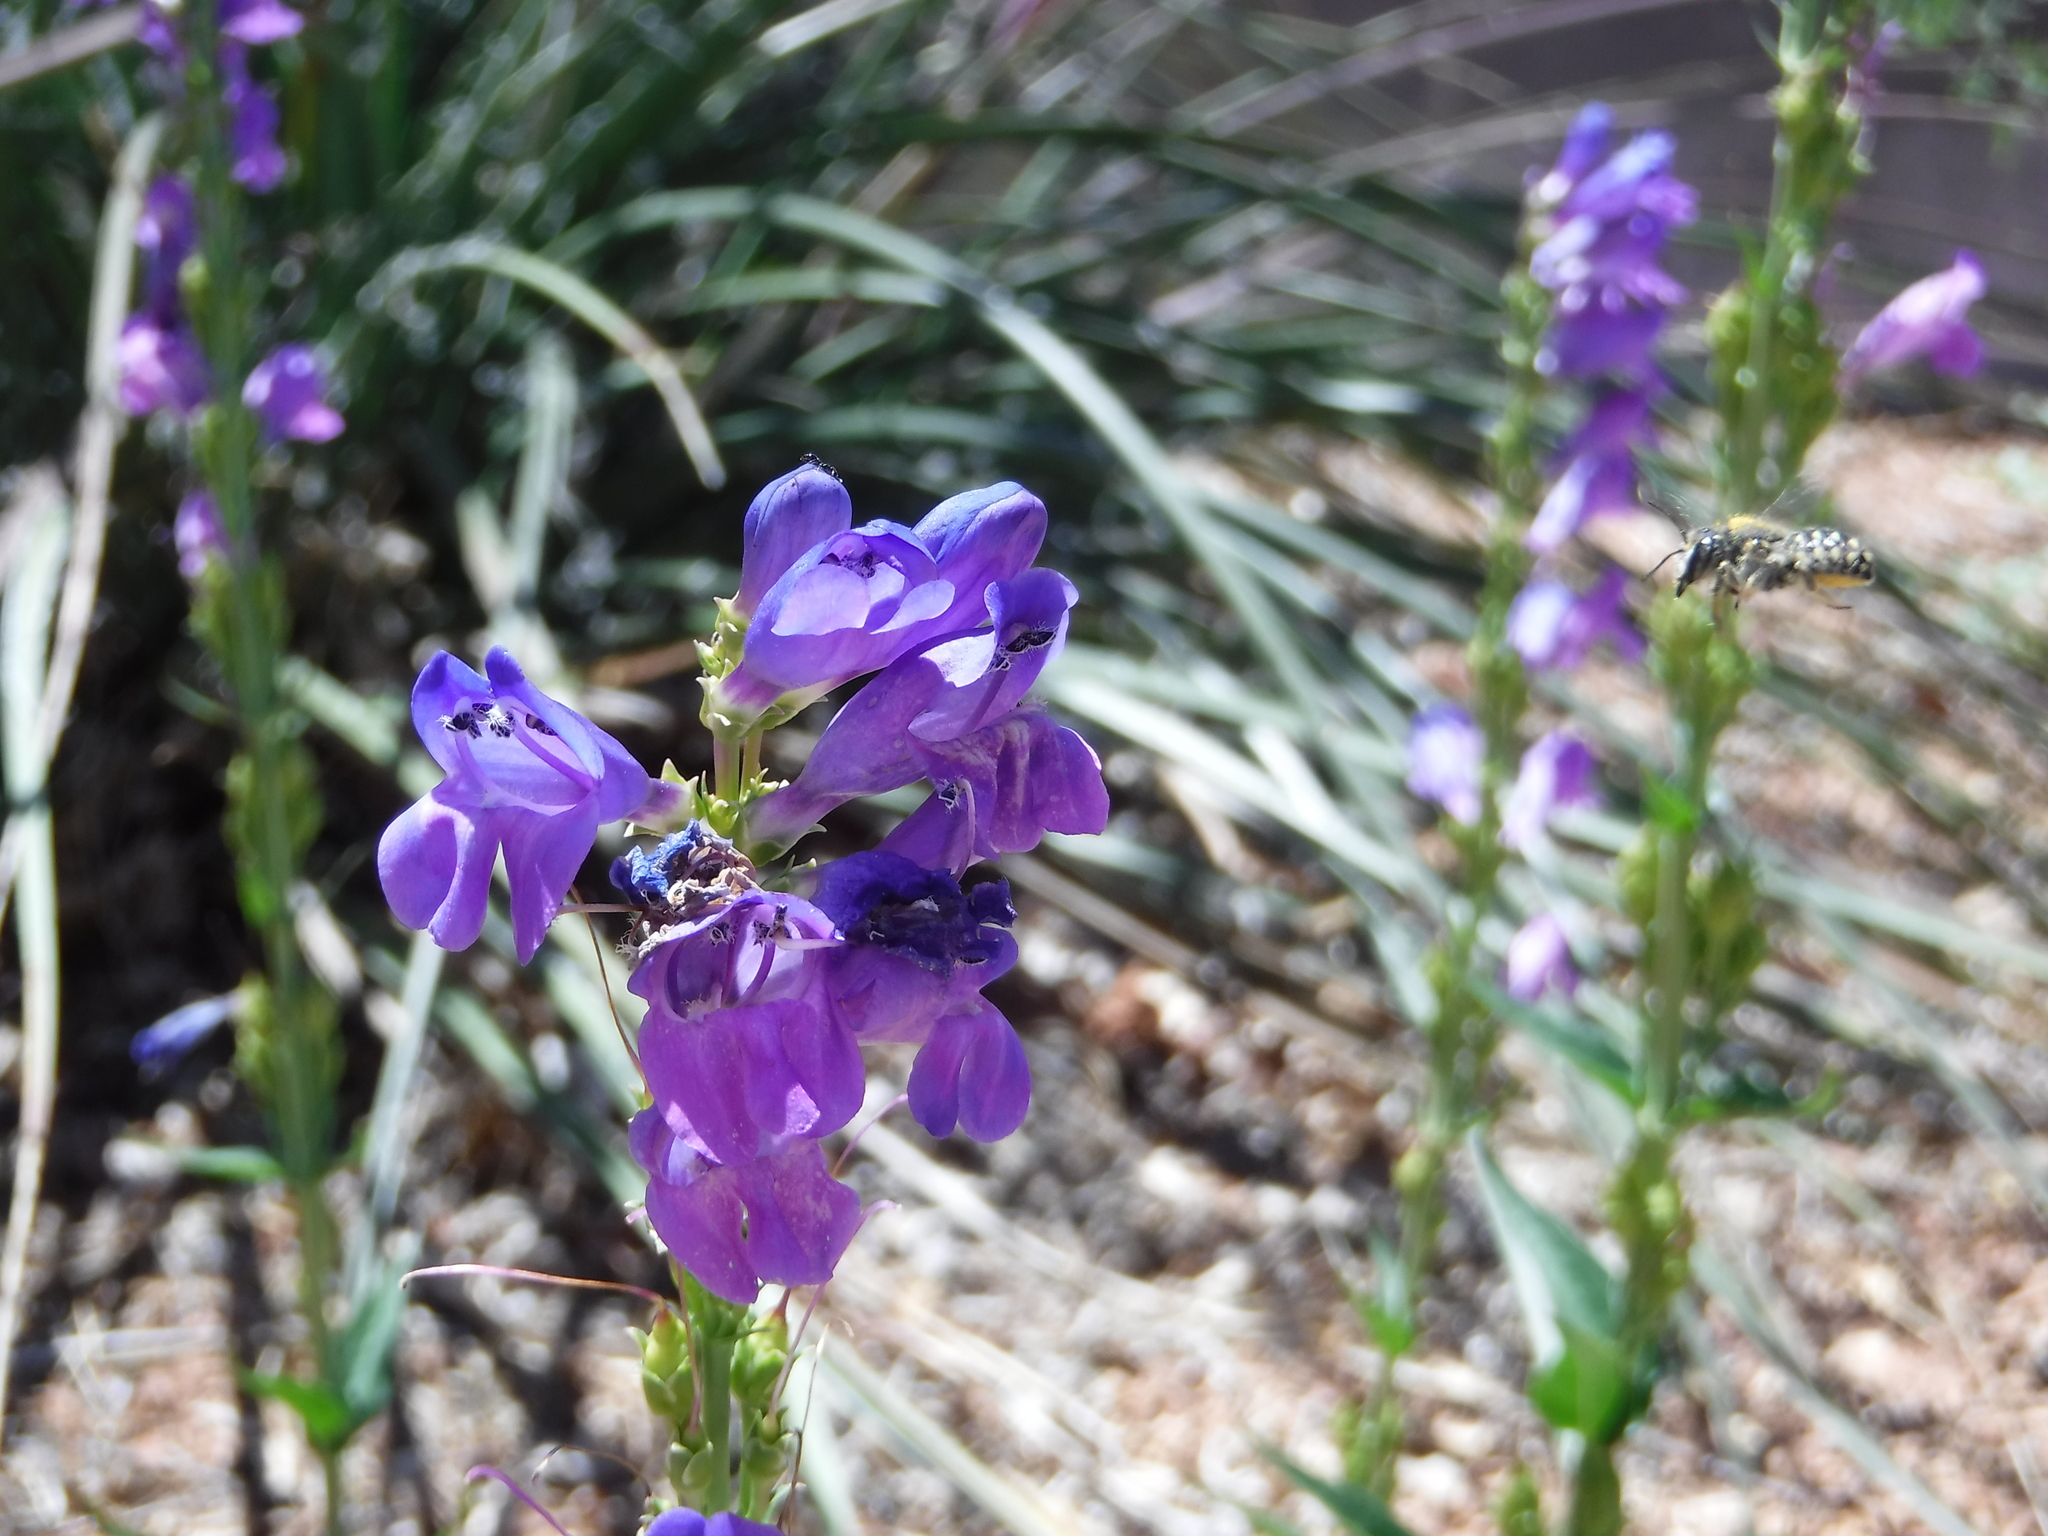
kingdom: Animalia
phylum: Arthropoda
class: Insecta
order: Hymenoptera
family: Megachilidae
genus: Anthidium
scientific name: Anthidium maculosum
